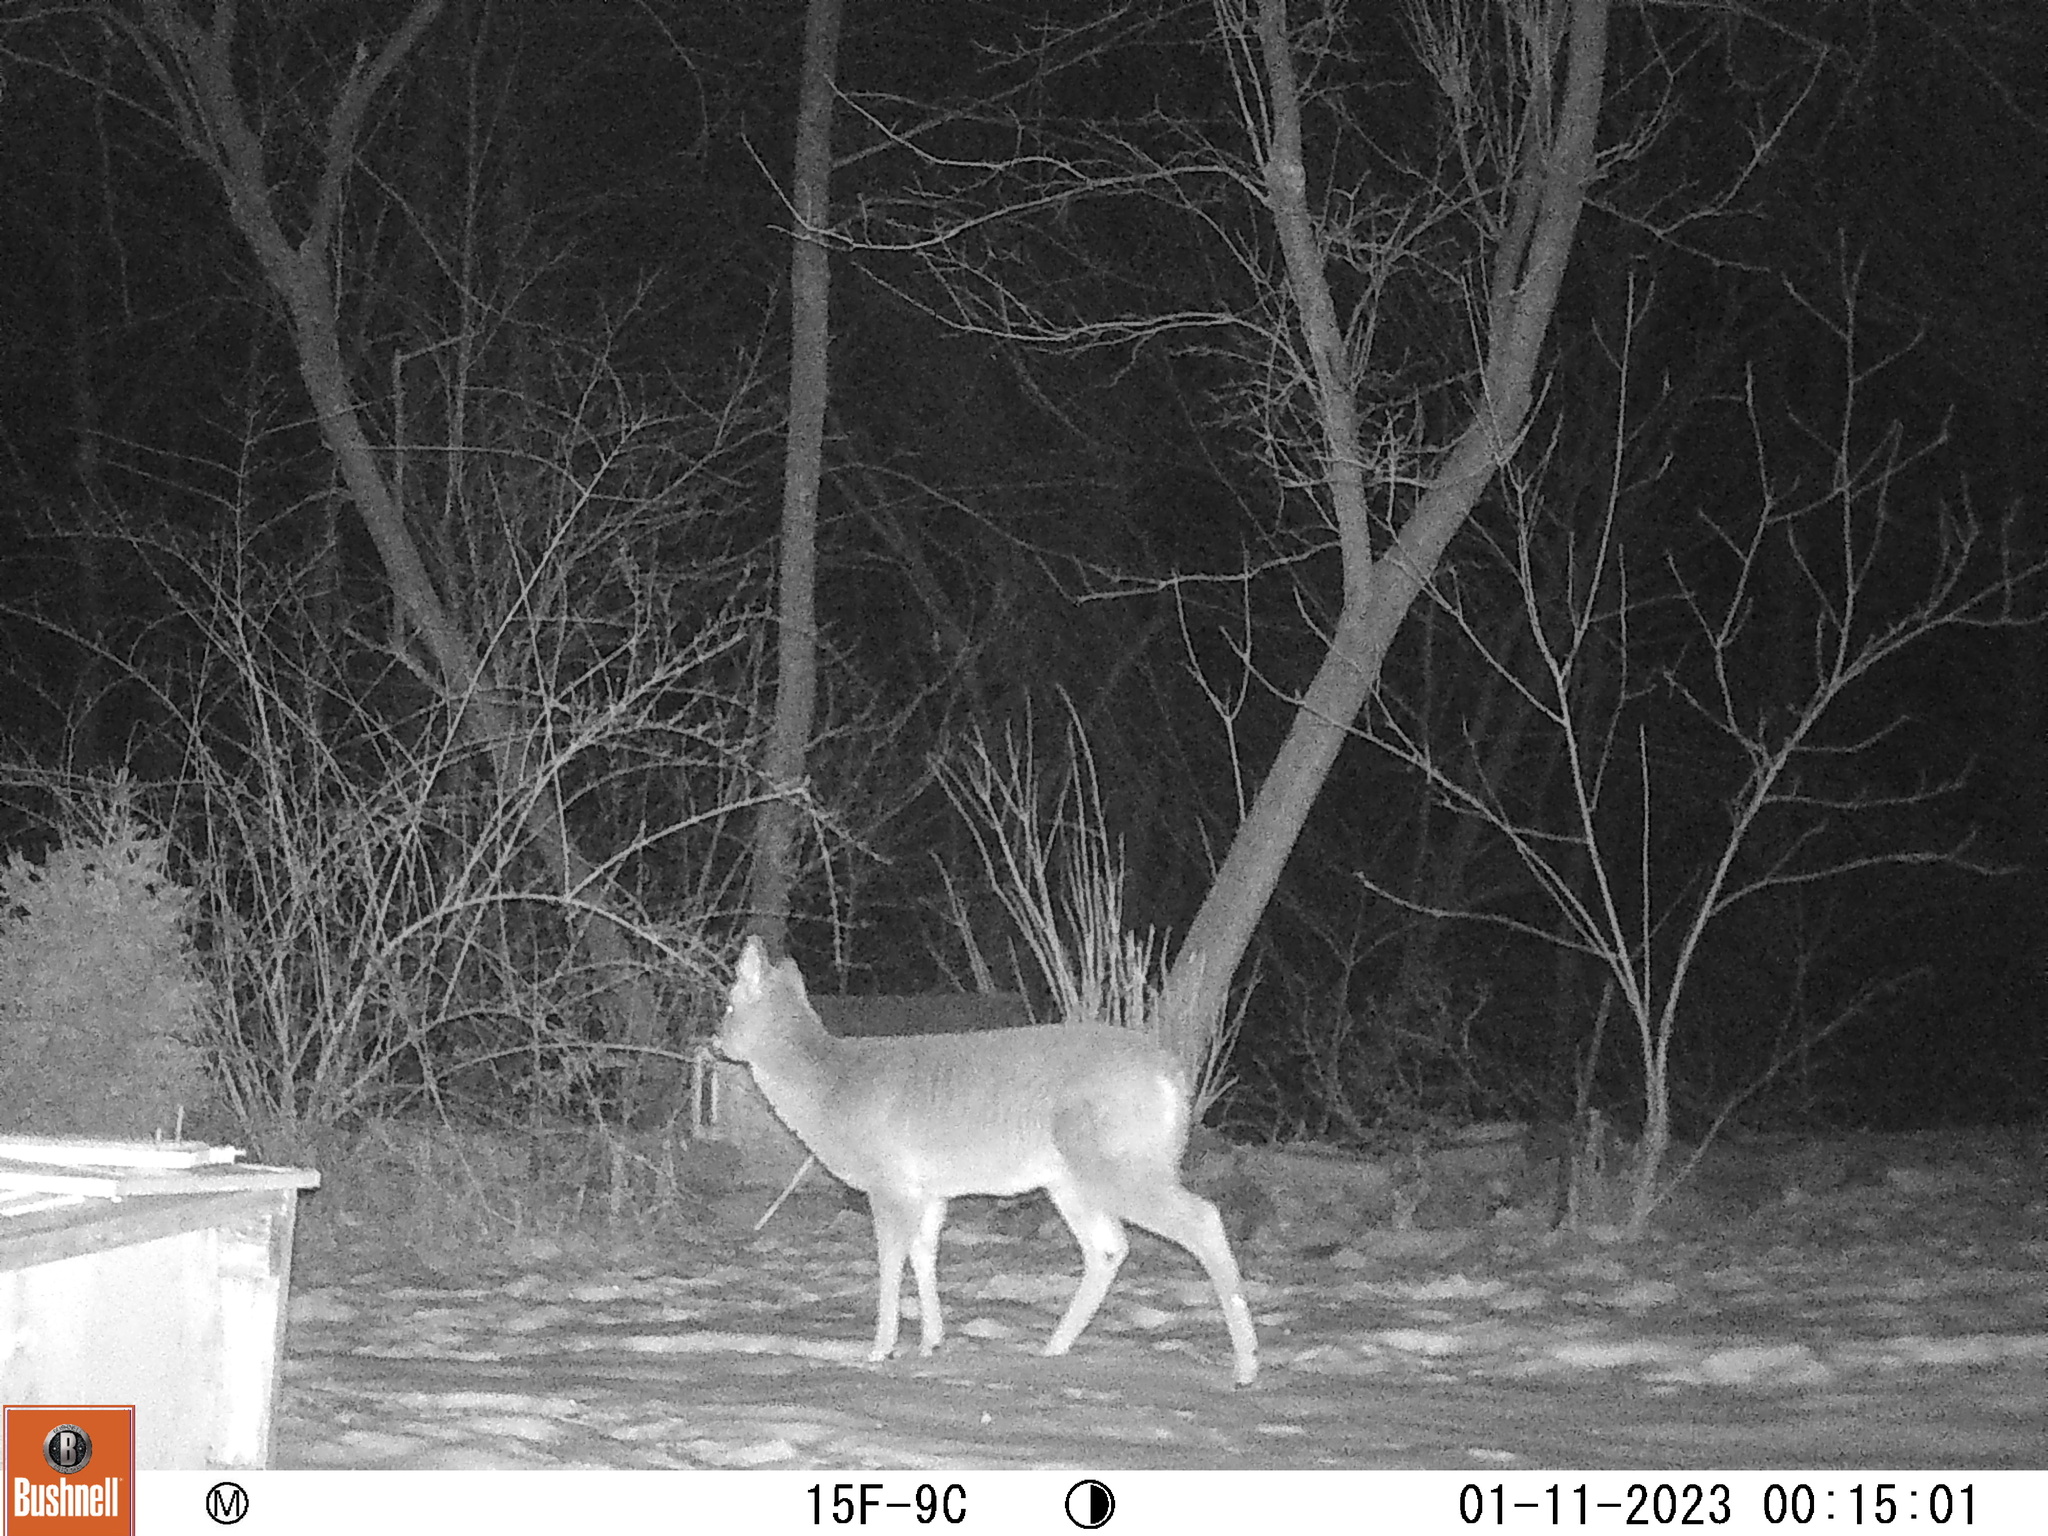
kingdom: Animalia
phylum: Chordata
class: Mammalia
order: Artiodactyla
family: Cervidae
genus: Odocoileus
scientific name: Odocoileus virginianus
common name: White-tailed deer
